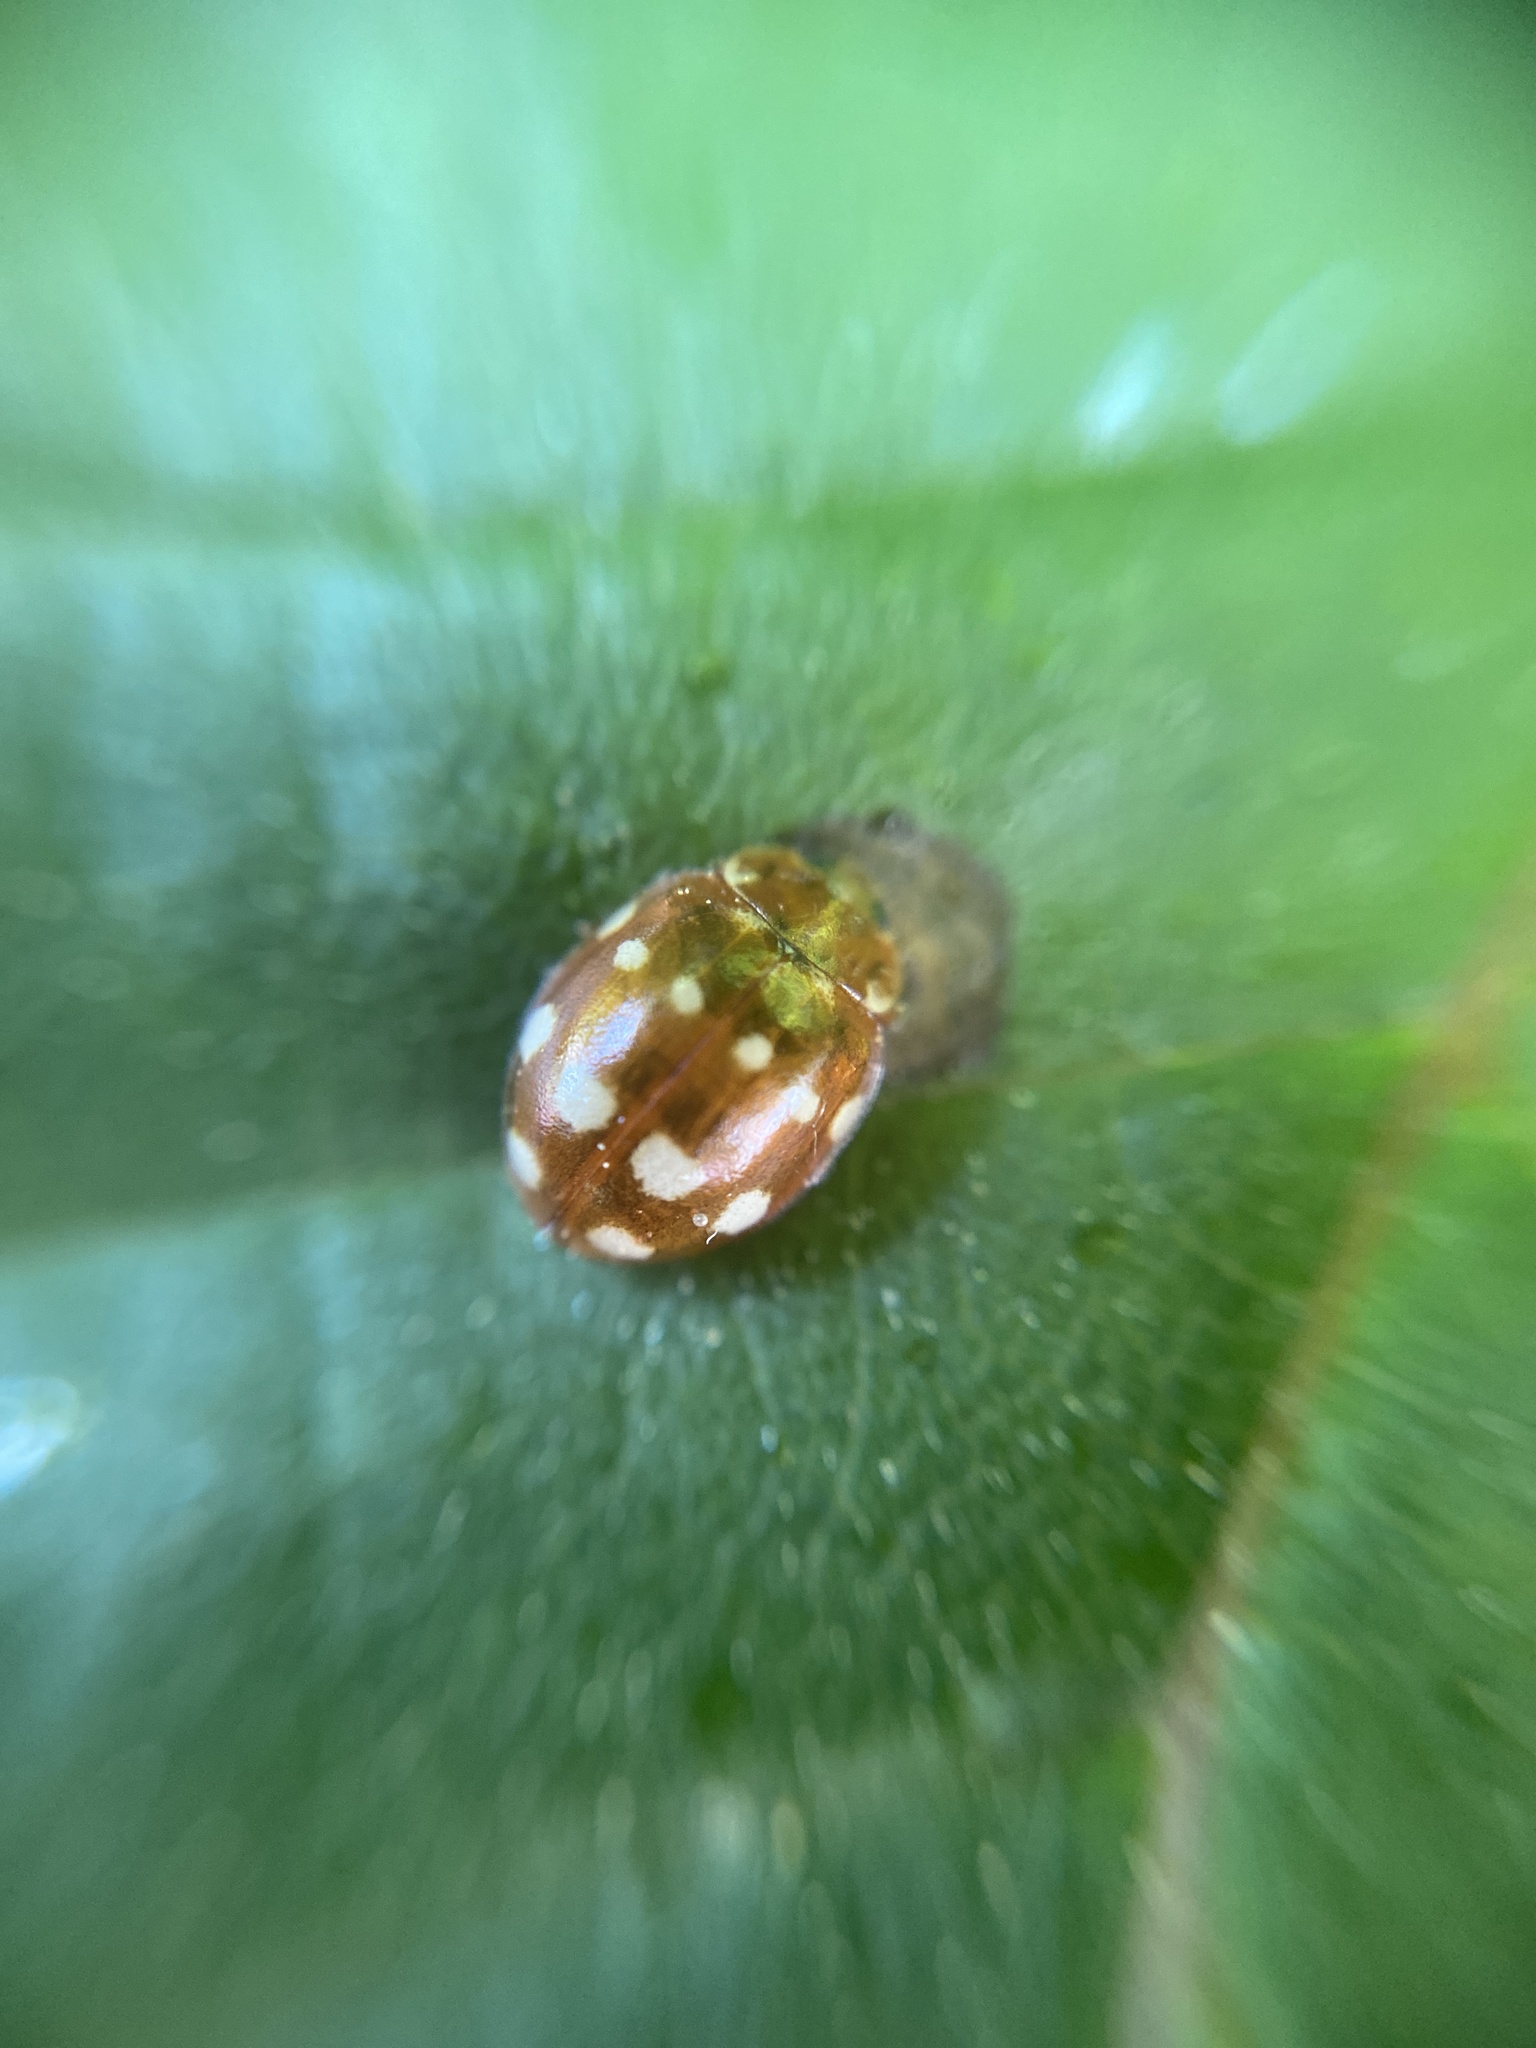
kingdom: Animalia
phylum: Arthropoda
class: Insecta
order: Coleoptera
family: Coccinellidae
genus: Calvia
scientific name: Calvia quatuordecimguttata
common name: Cream-spot ladybird
